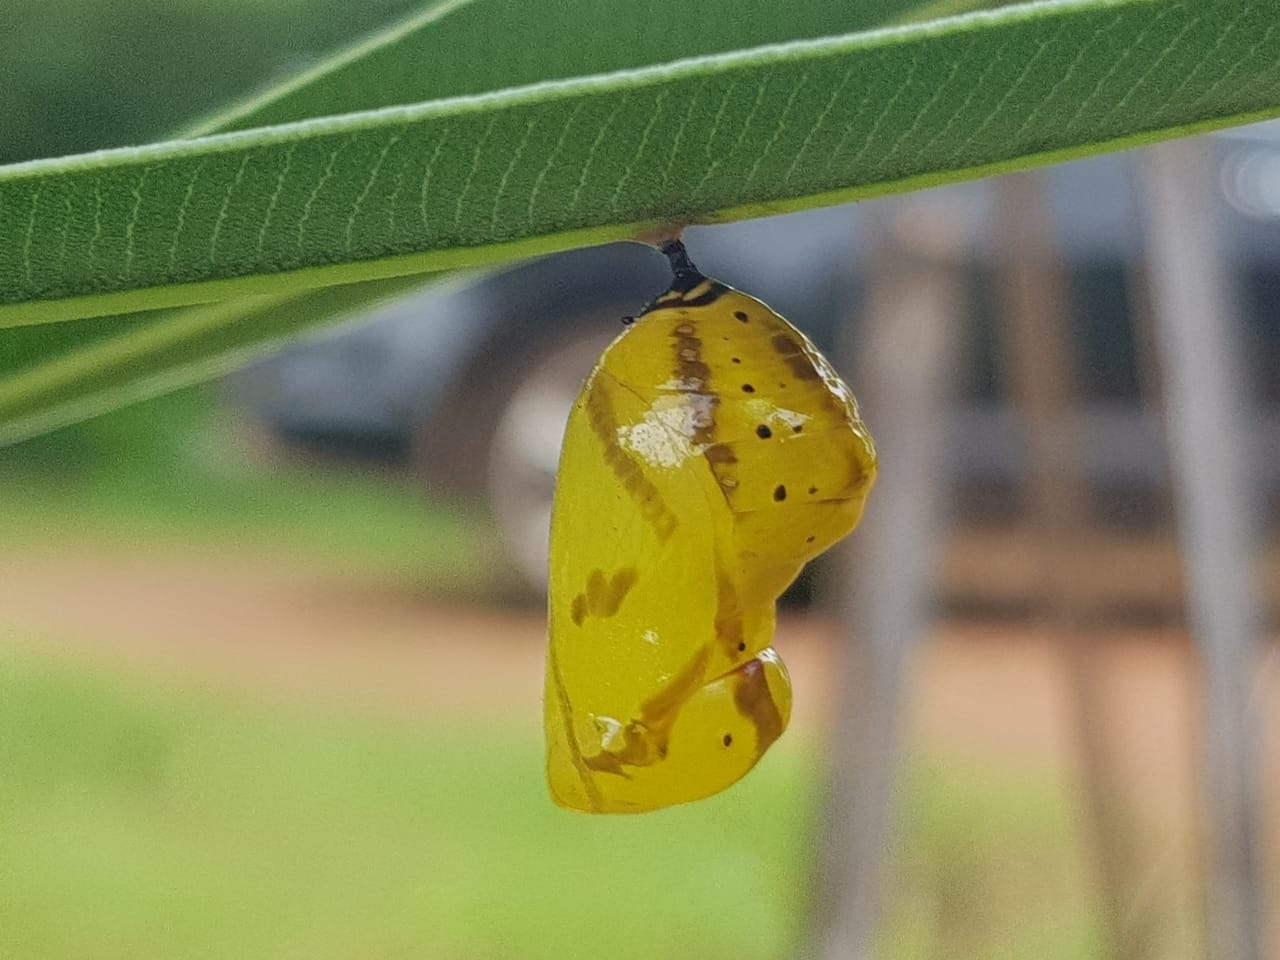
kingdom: Animalia
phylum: Arthropoda
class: Insecta
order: Lepidoptera
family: Nymphalidae
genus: Euploea
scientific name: Euploea core
